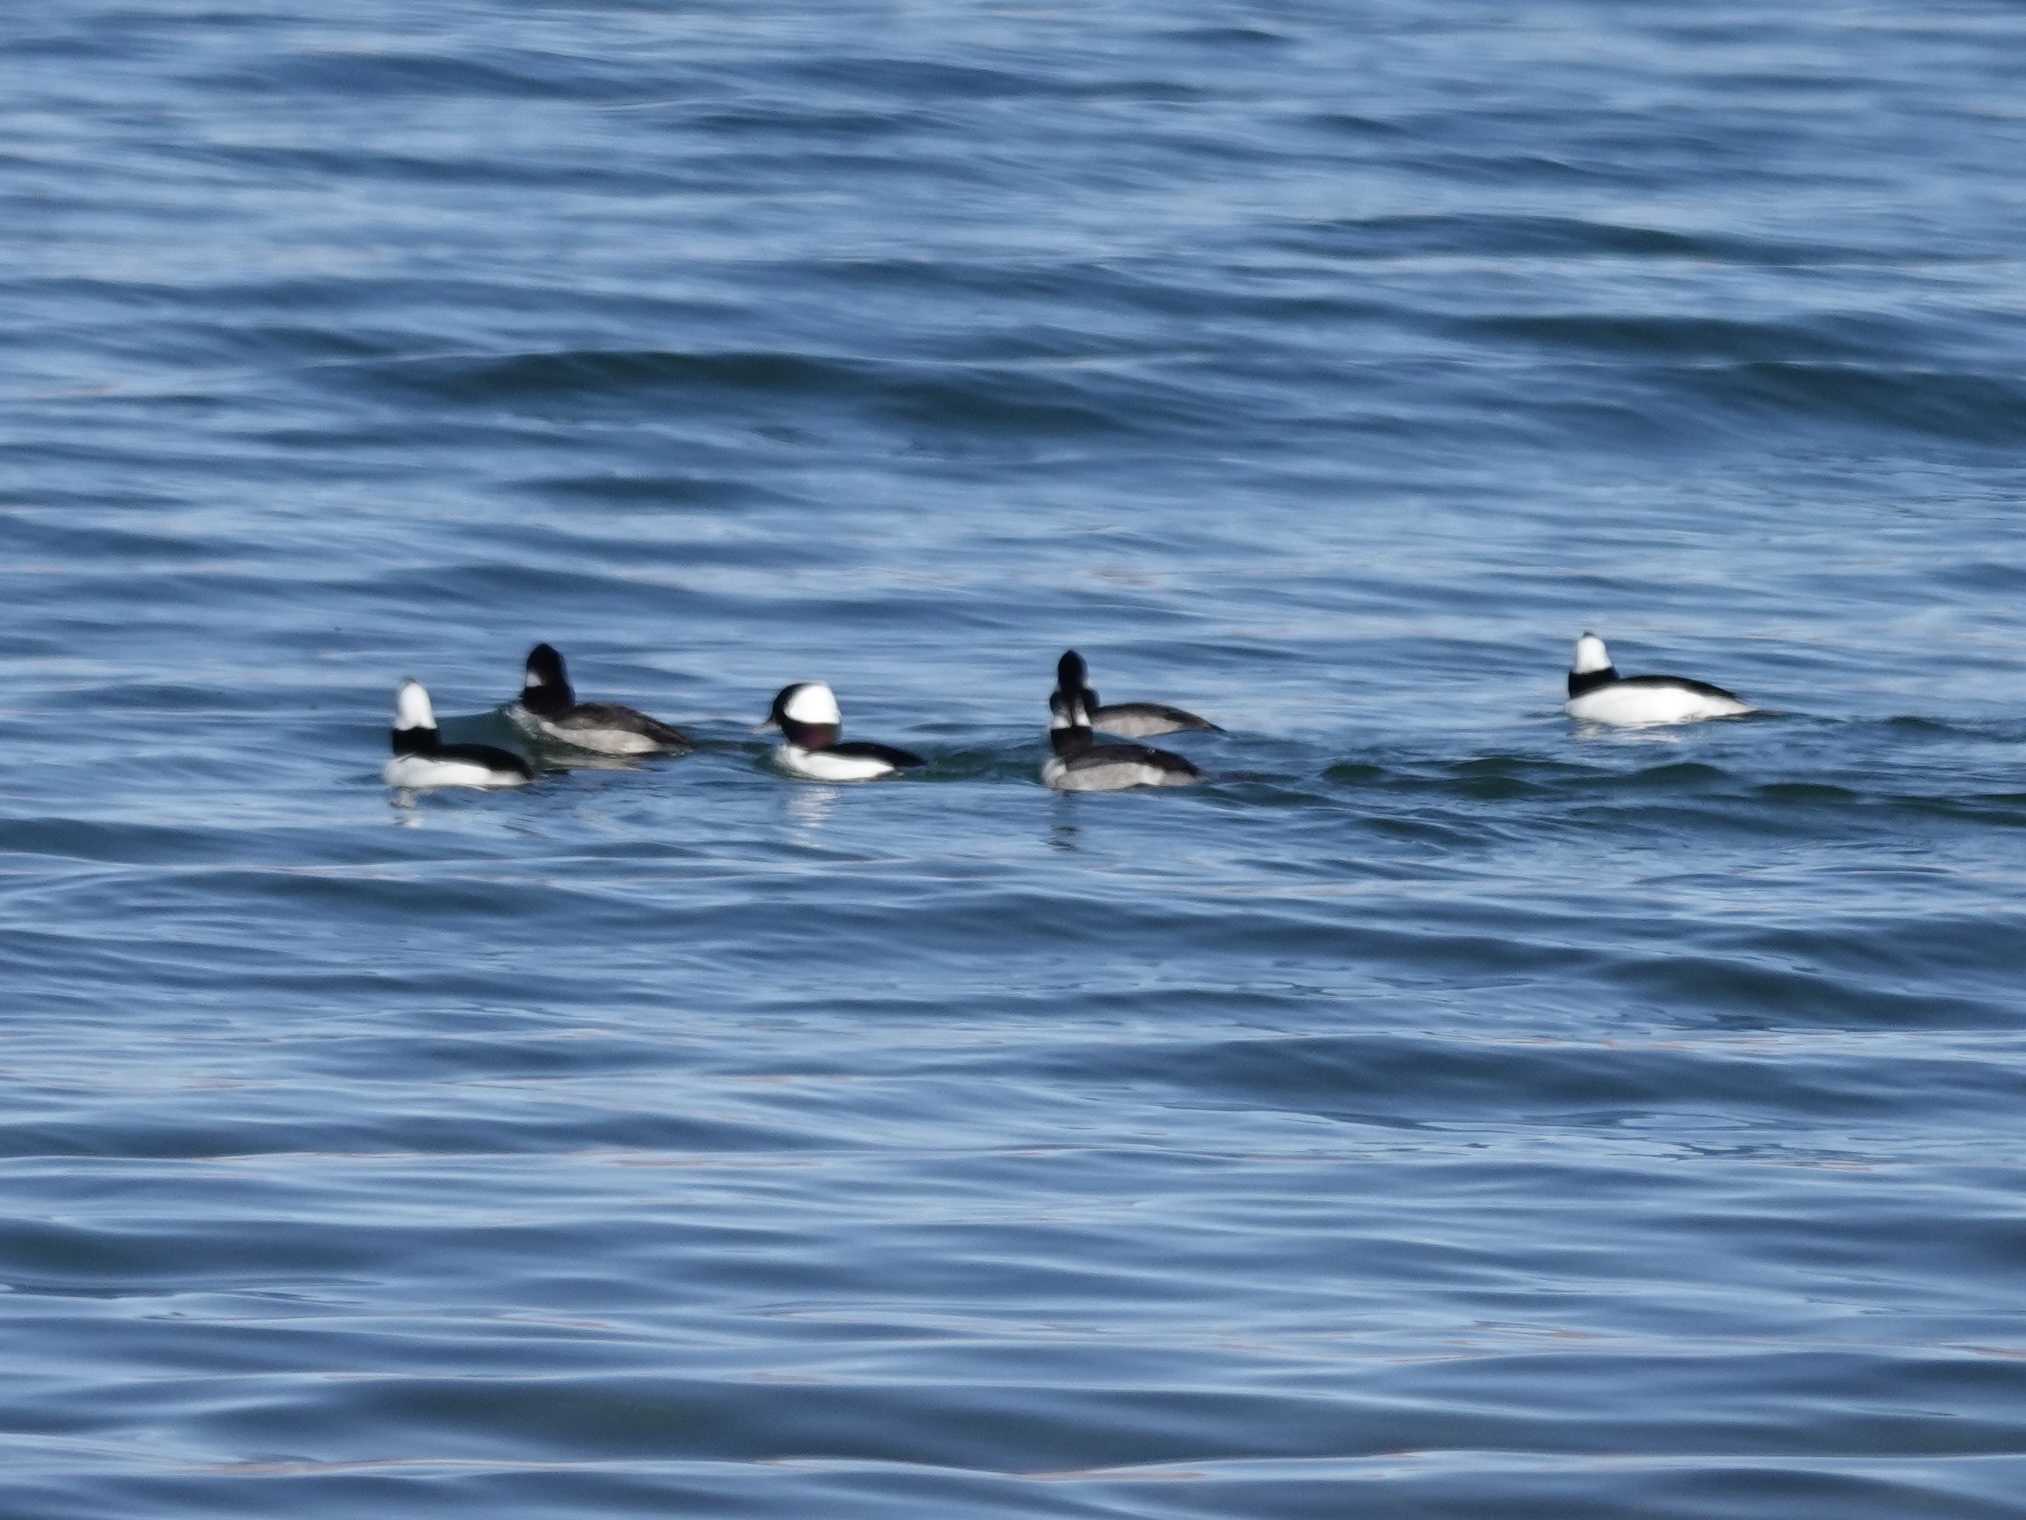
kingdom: Animalia
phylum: Chordata
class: Aves
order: Anseriformes
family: Anatidae
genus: Bucephala
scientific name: Bucephala albeola
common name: Bufflehead
